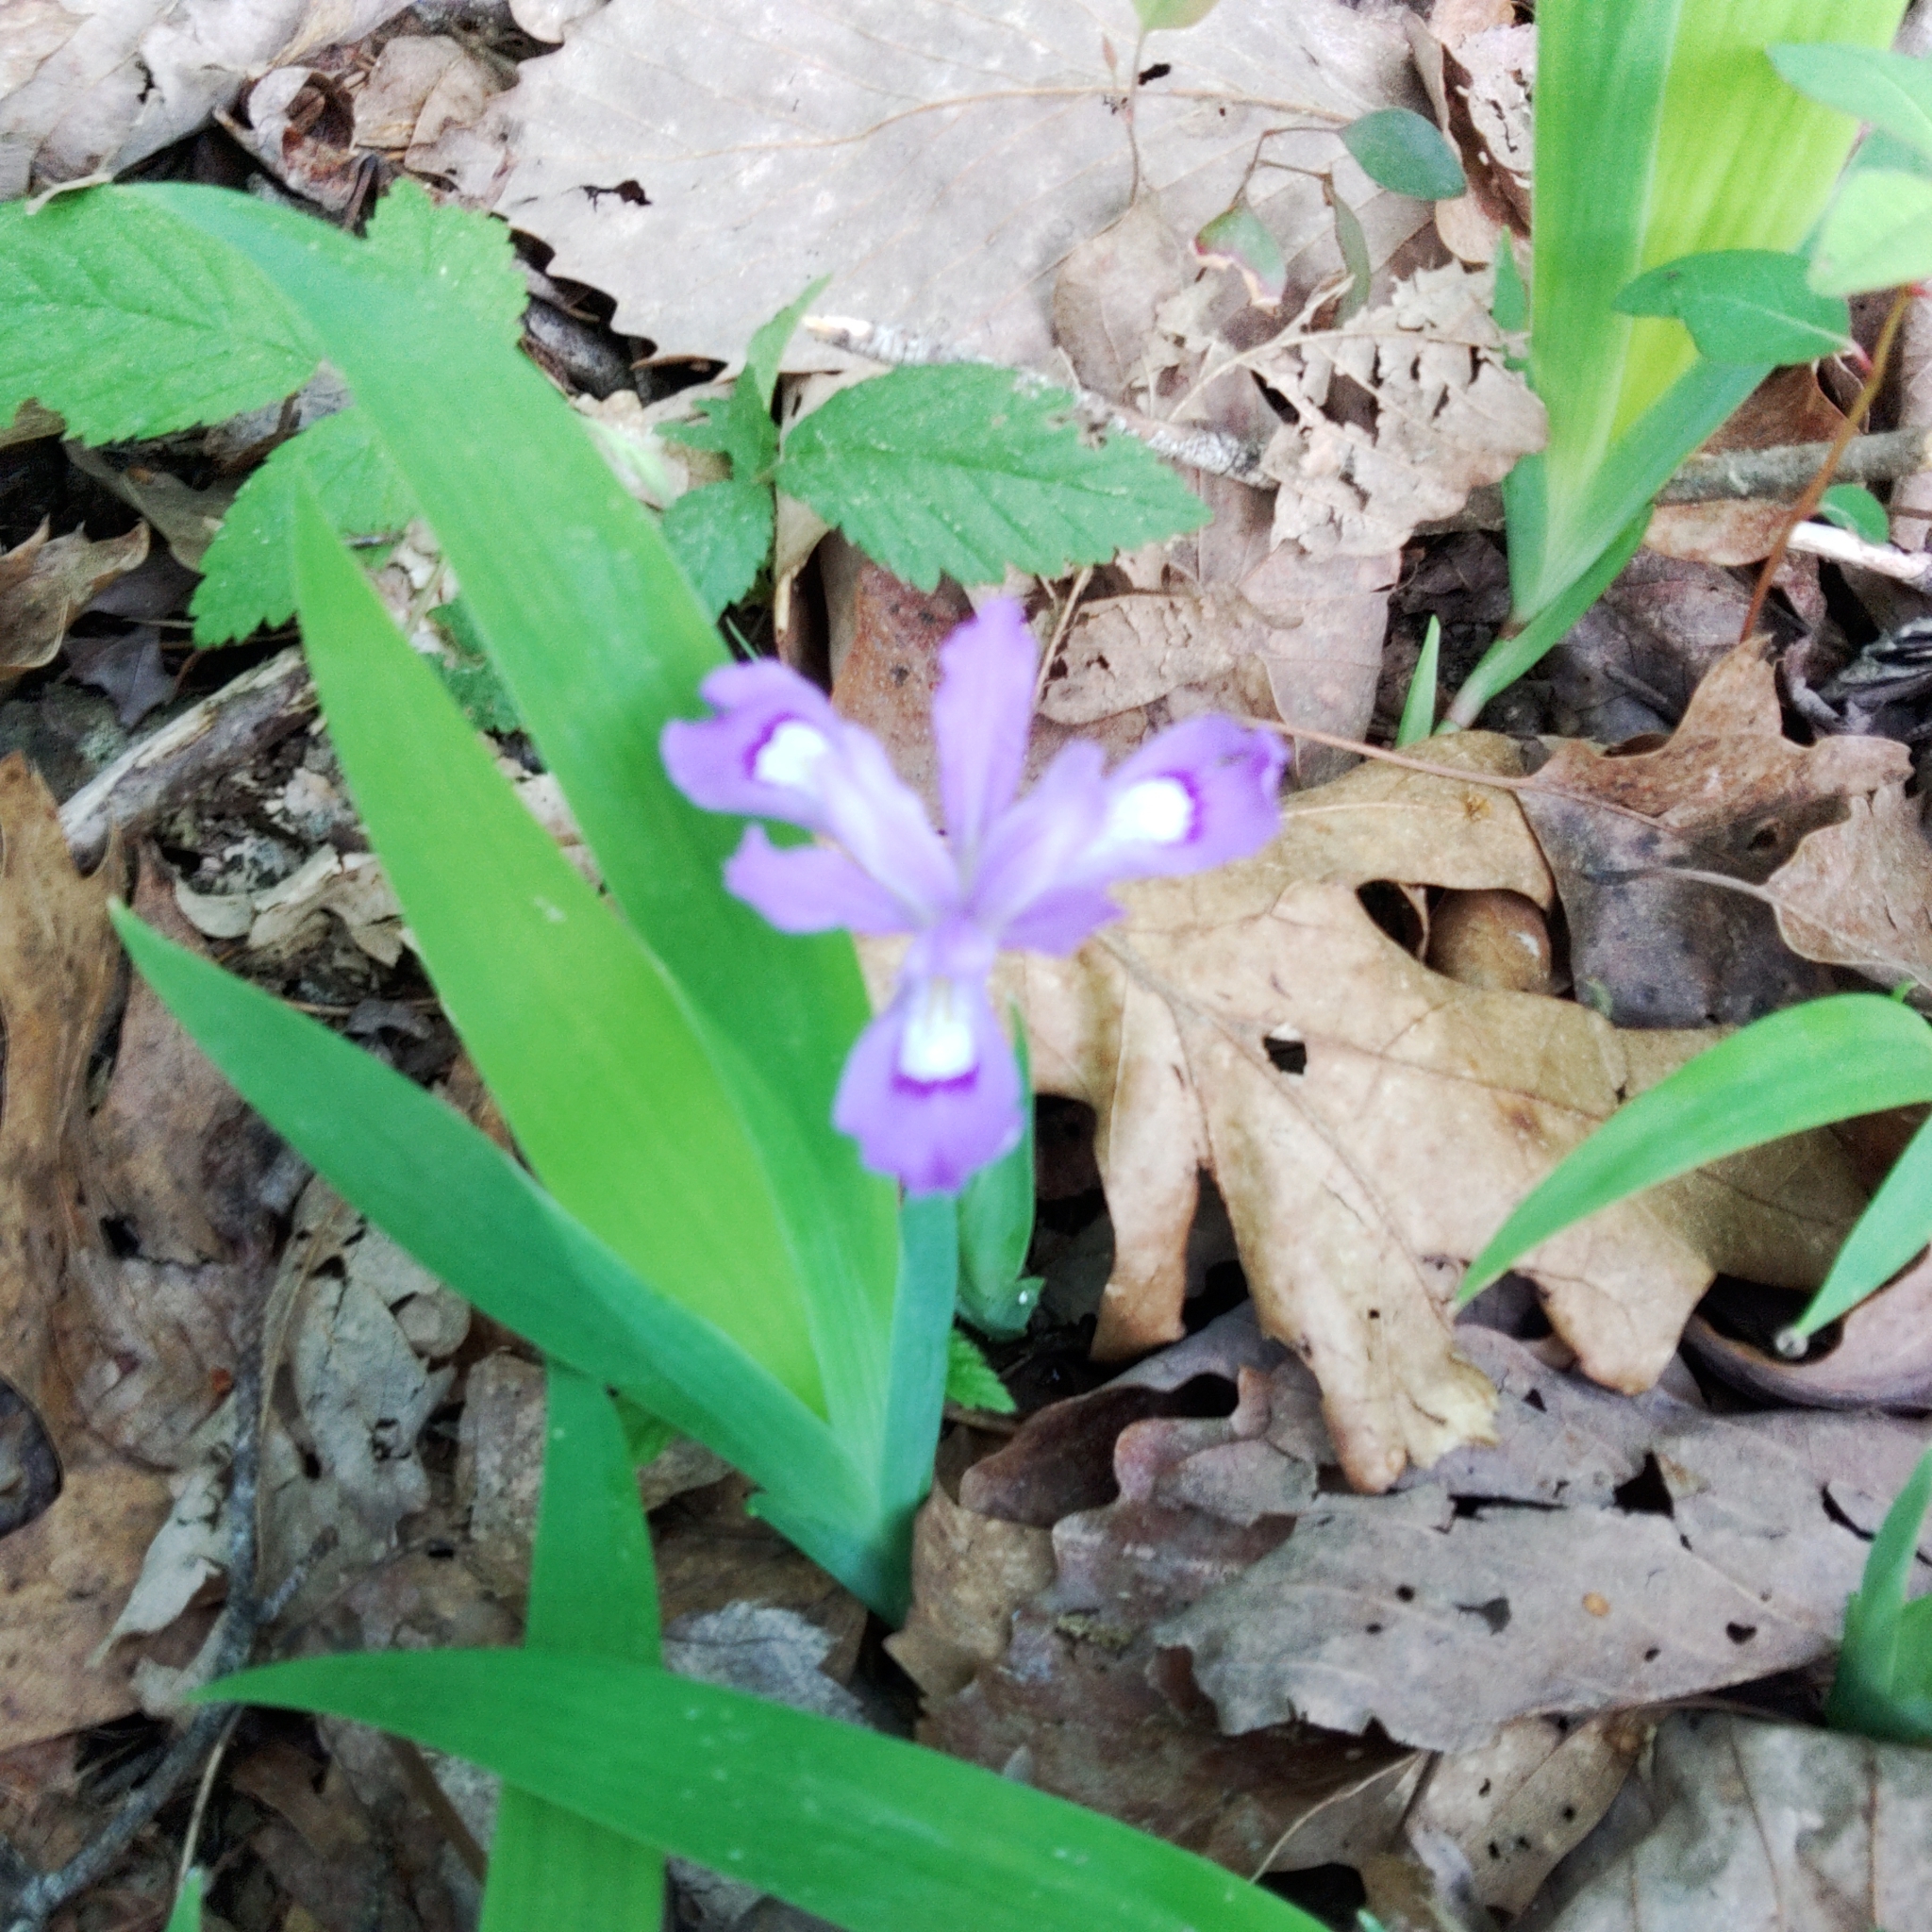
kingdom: Plantae
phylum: Tracheophyta
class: Liliopsida
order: Asparagales
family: Iridaceae
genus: Iris
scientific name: Iris cristata
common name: Crested iris
